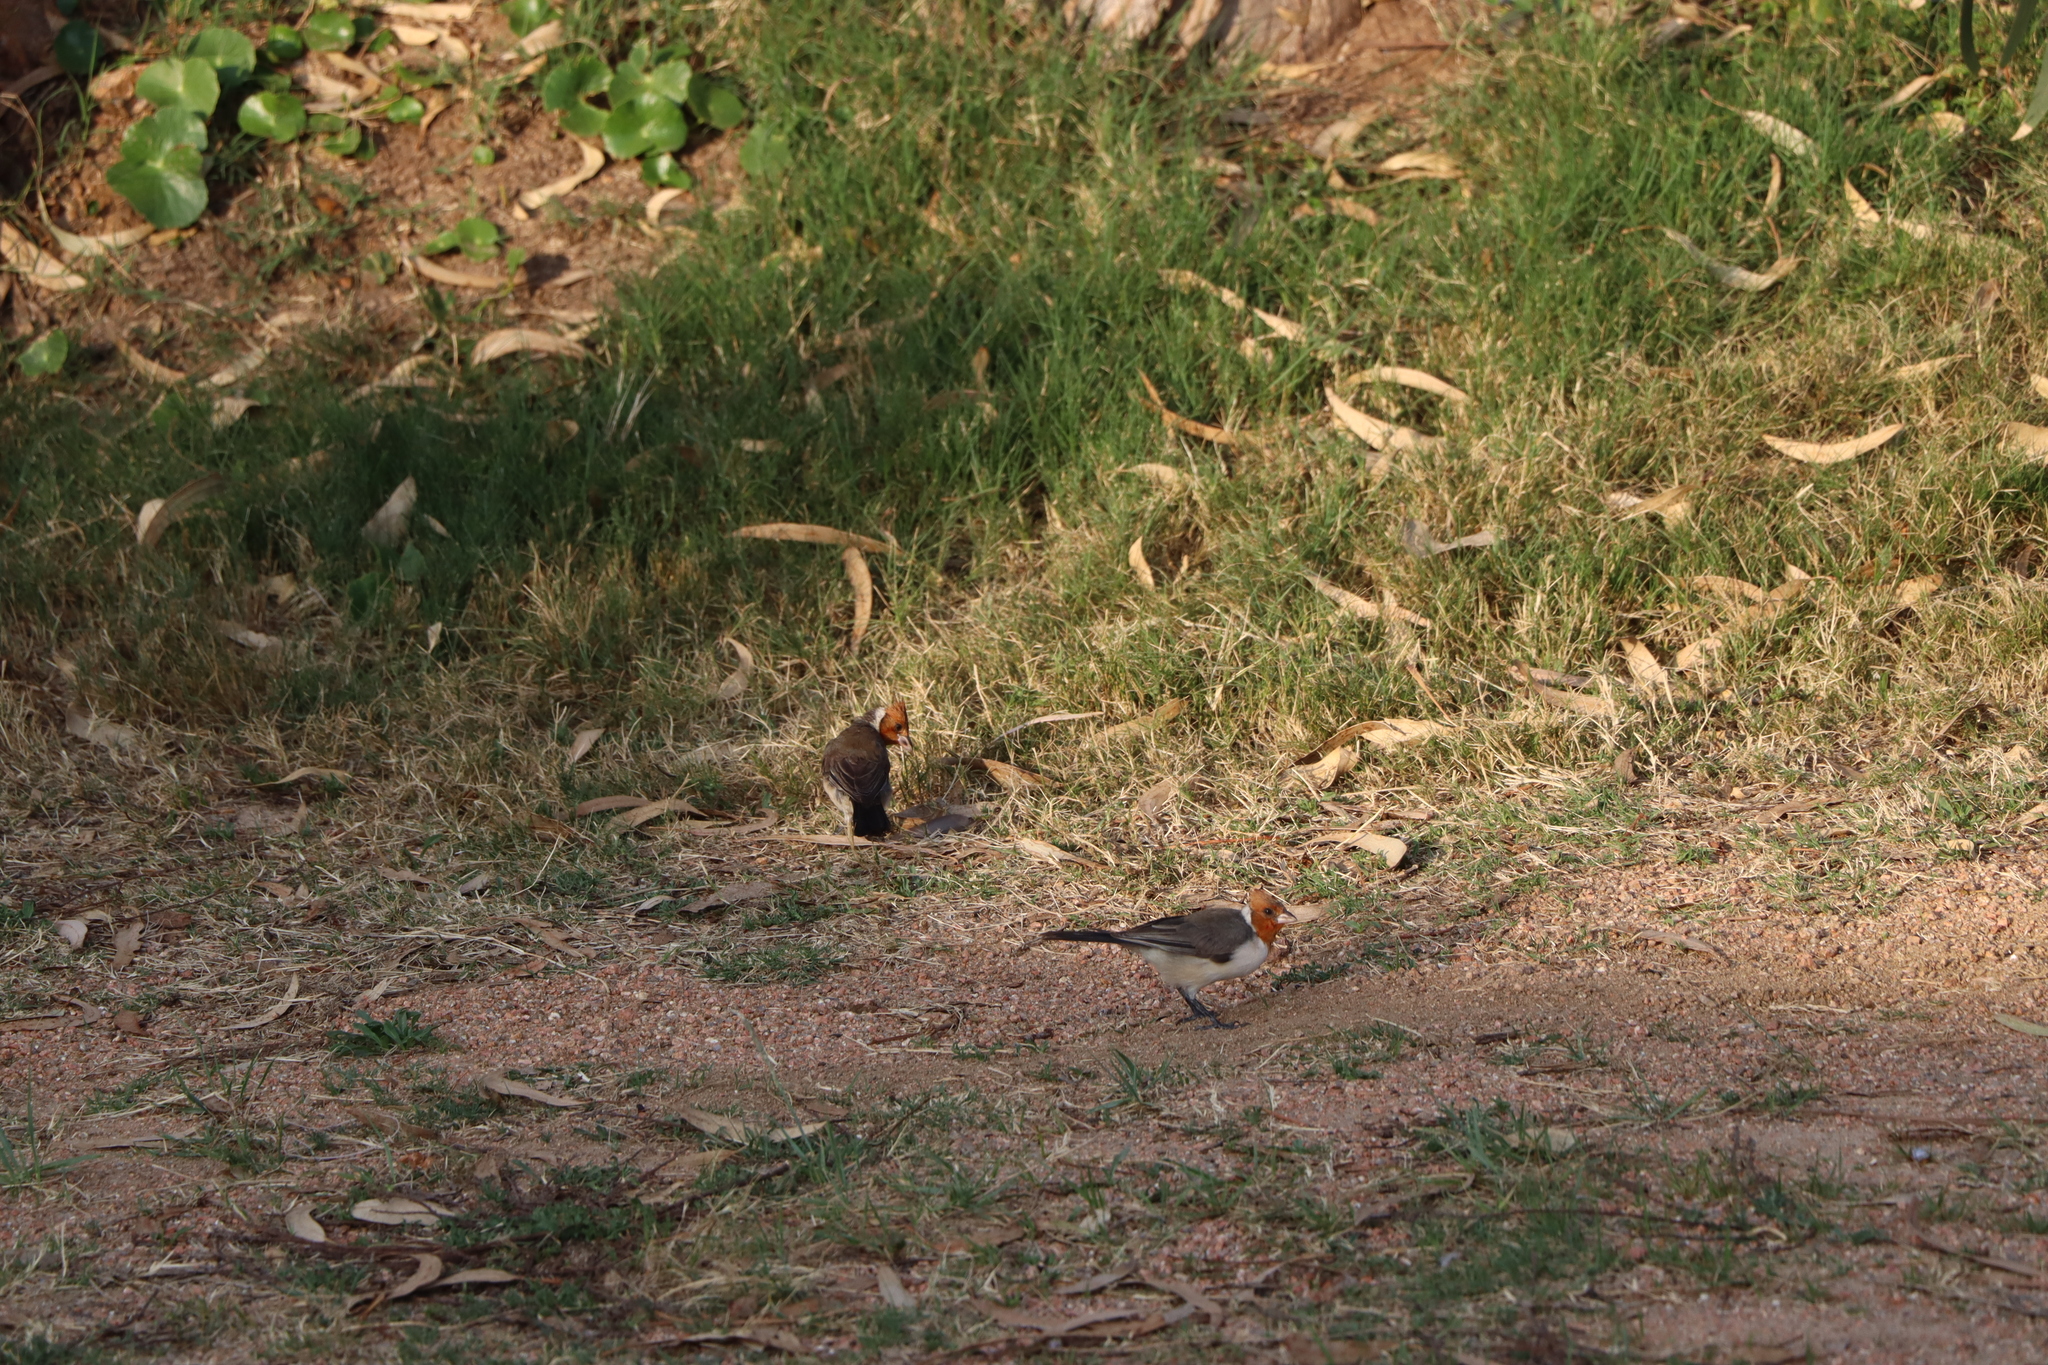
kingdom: Animalia
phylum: Chordata
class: Aves
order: Passeriformes
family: Thraupidae
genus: Paroaria
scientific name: Paroaria coronata
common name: Red-crested cardinal
